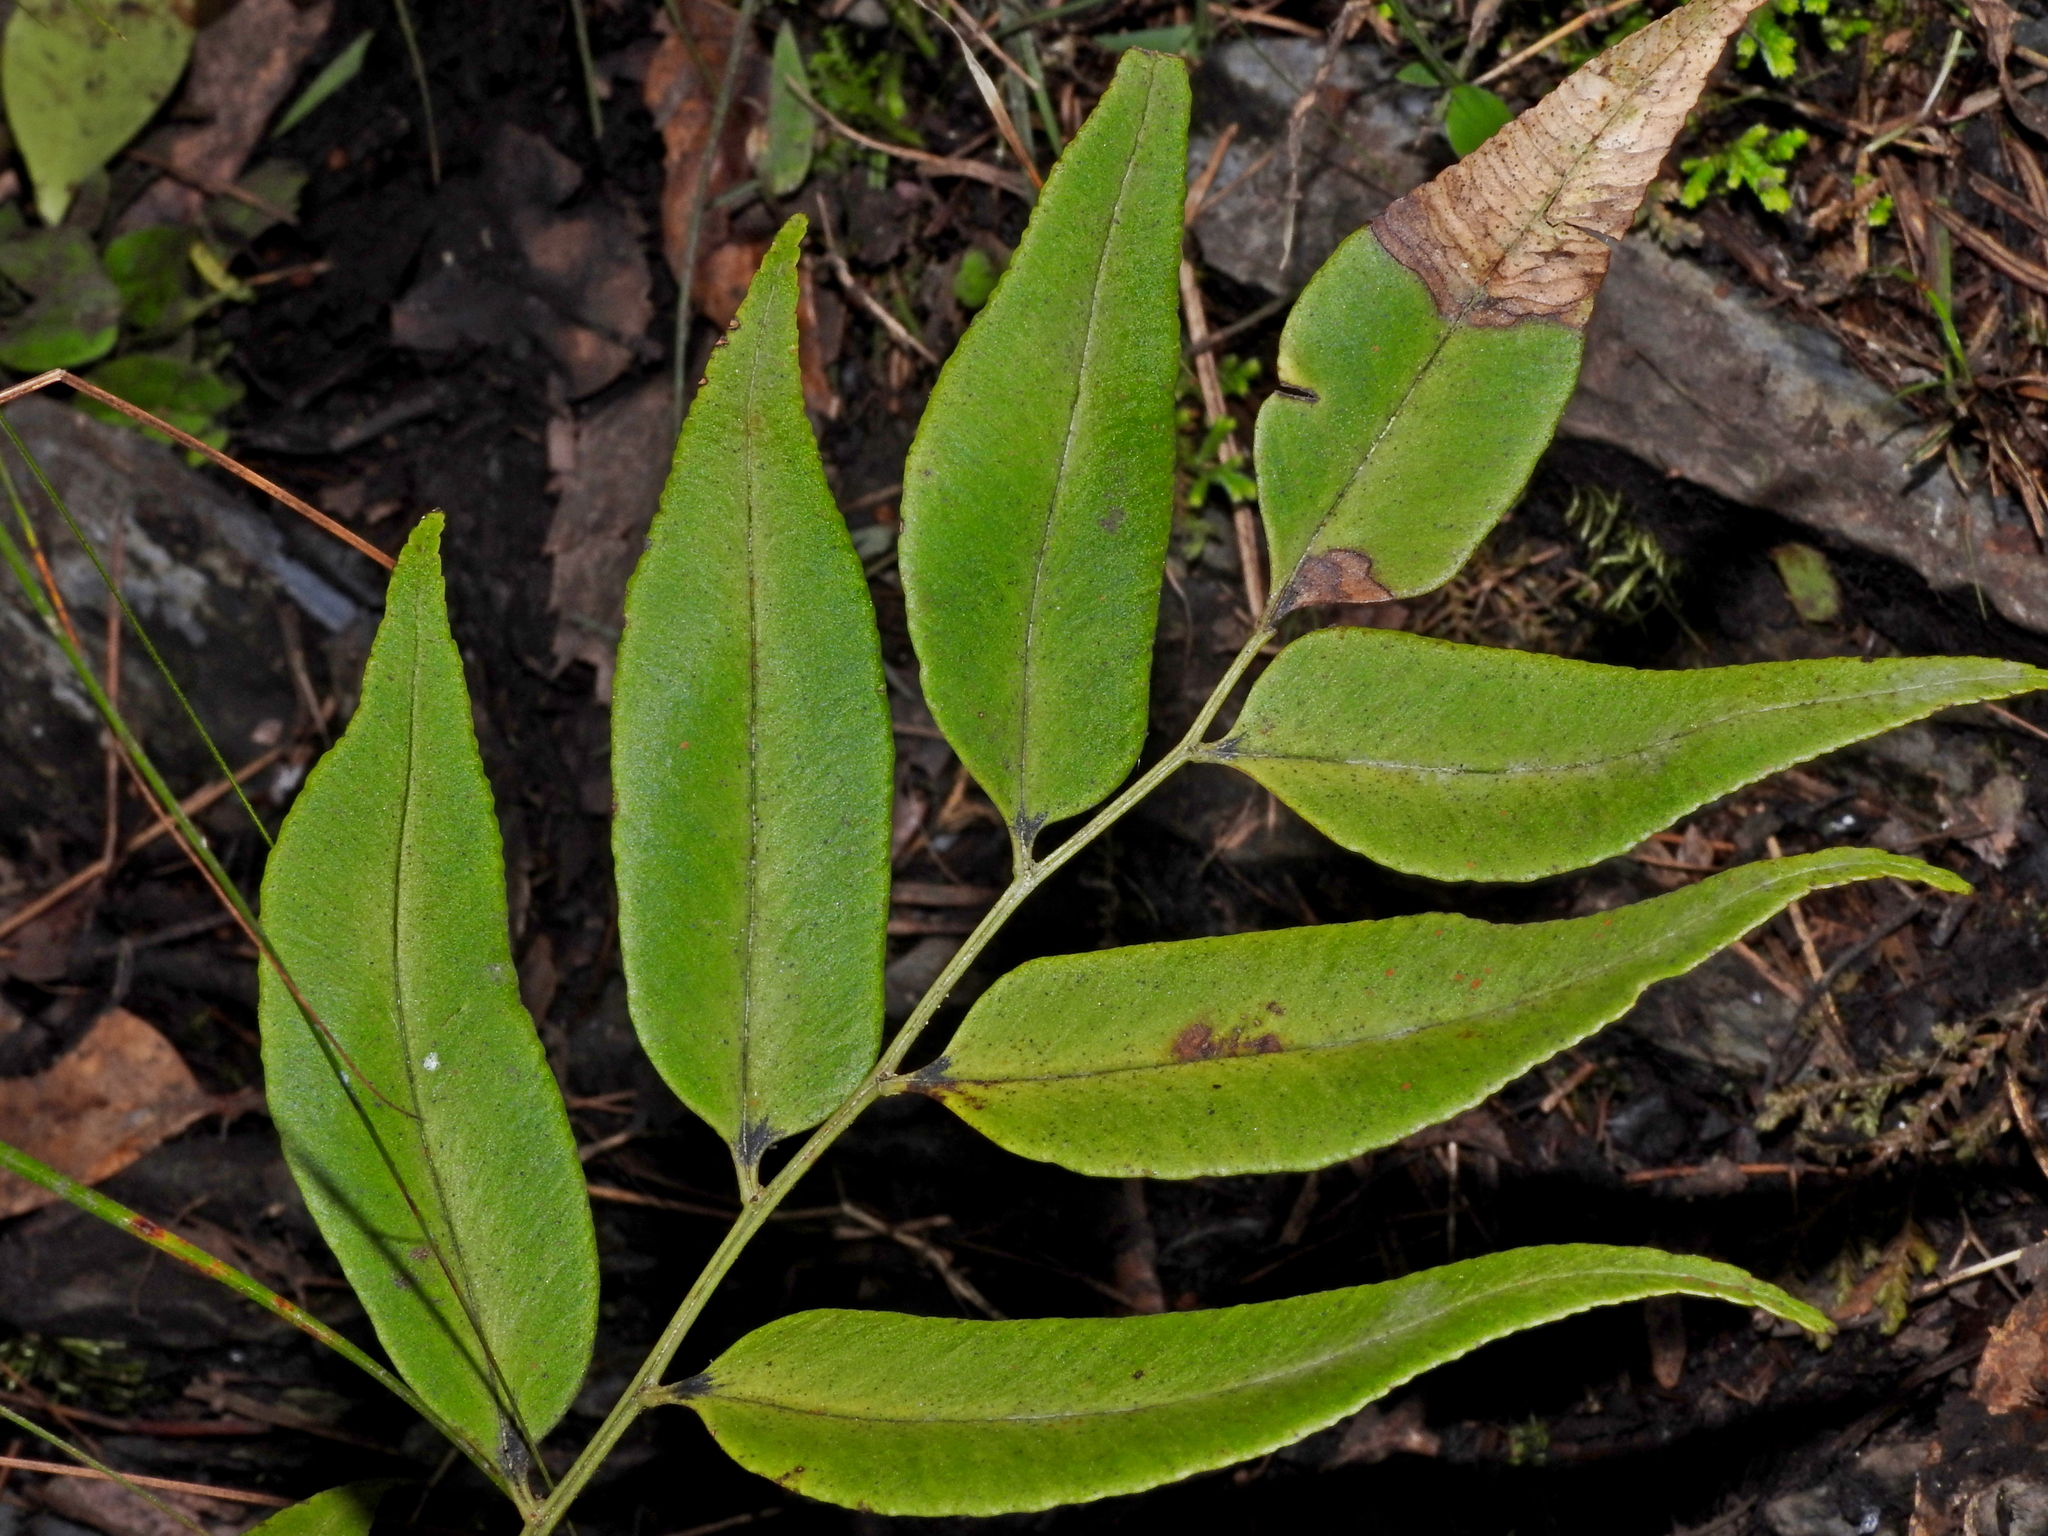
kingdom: Plantae
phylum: Tracheophyta
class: Polypodiopsida
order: Polypodiales
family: Dryopteridaceae
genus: Polystichum
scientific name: Polystichum fraxinellum
